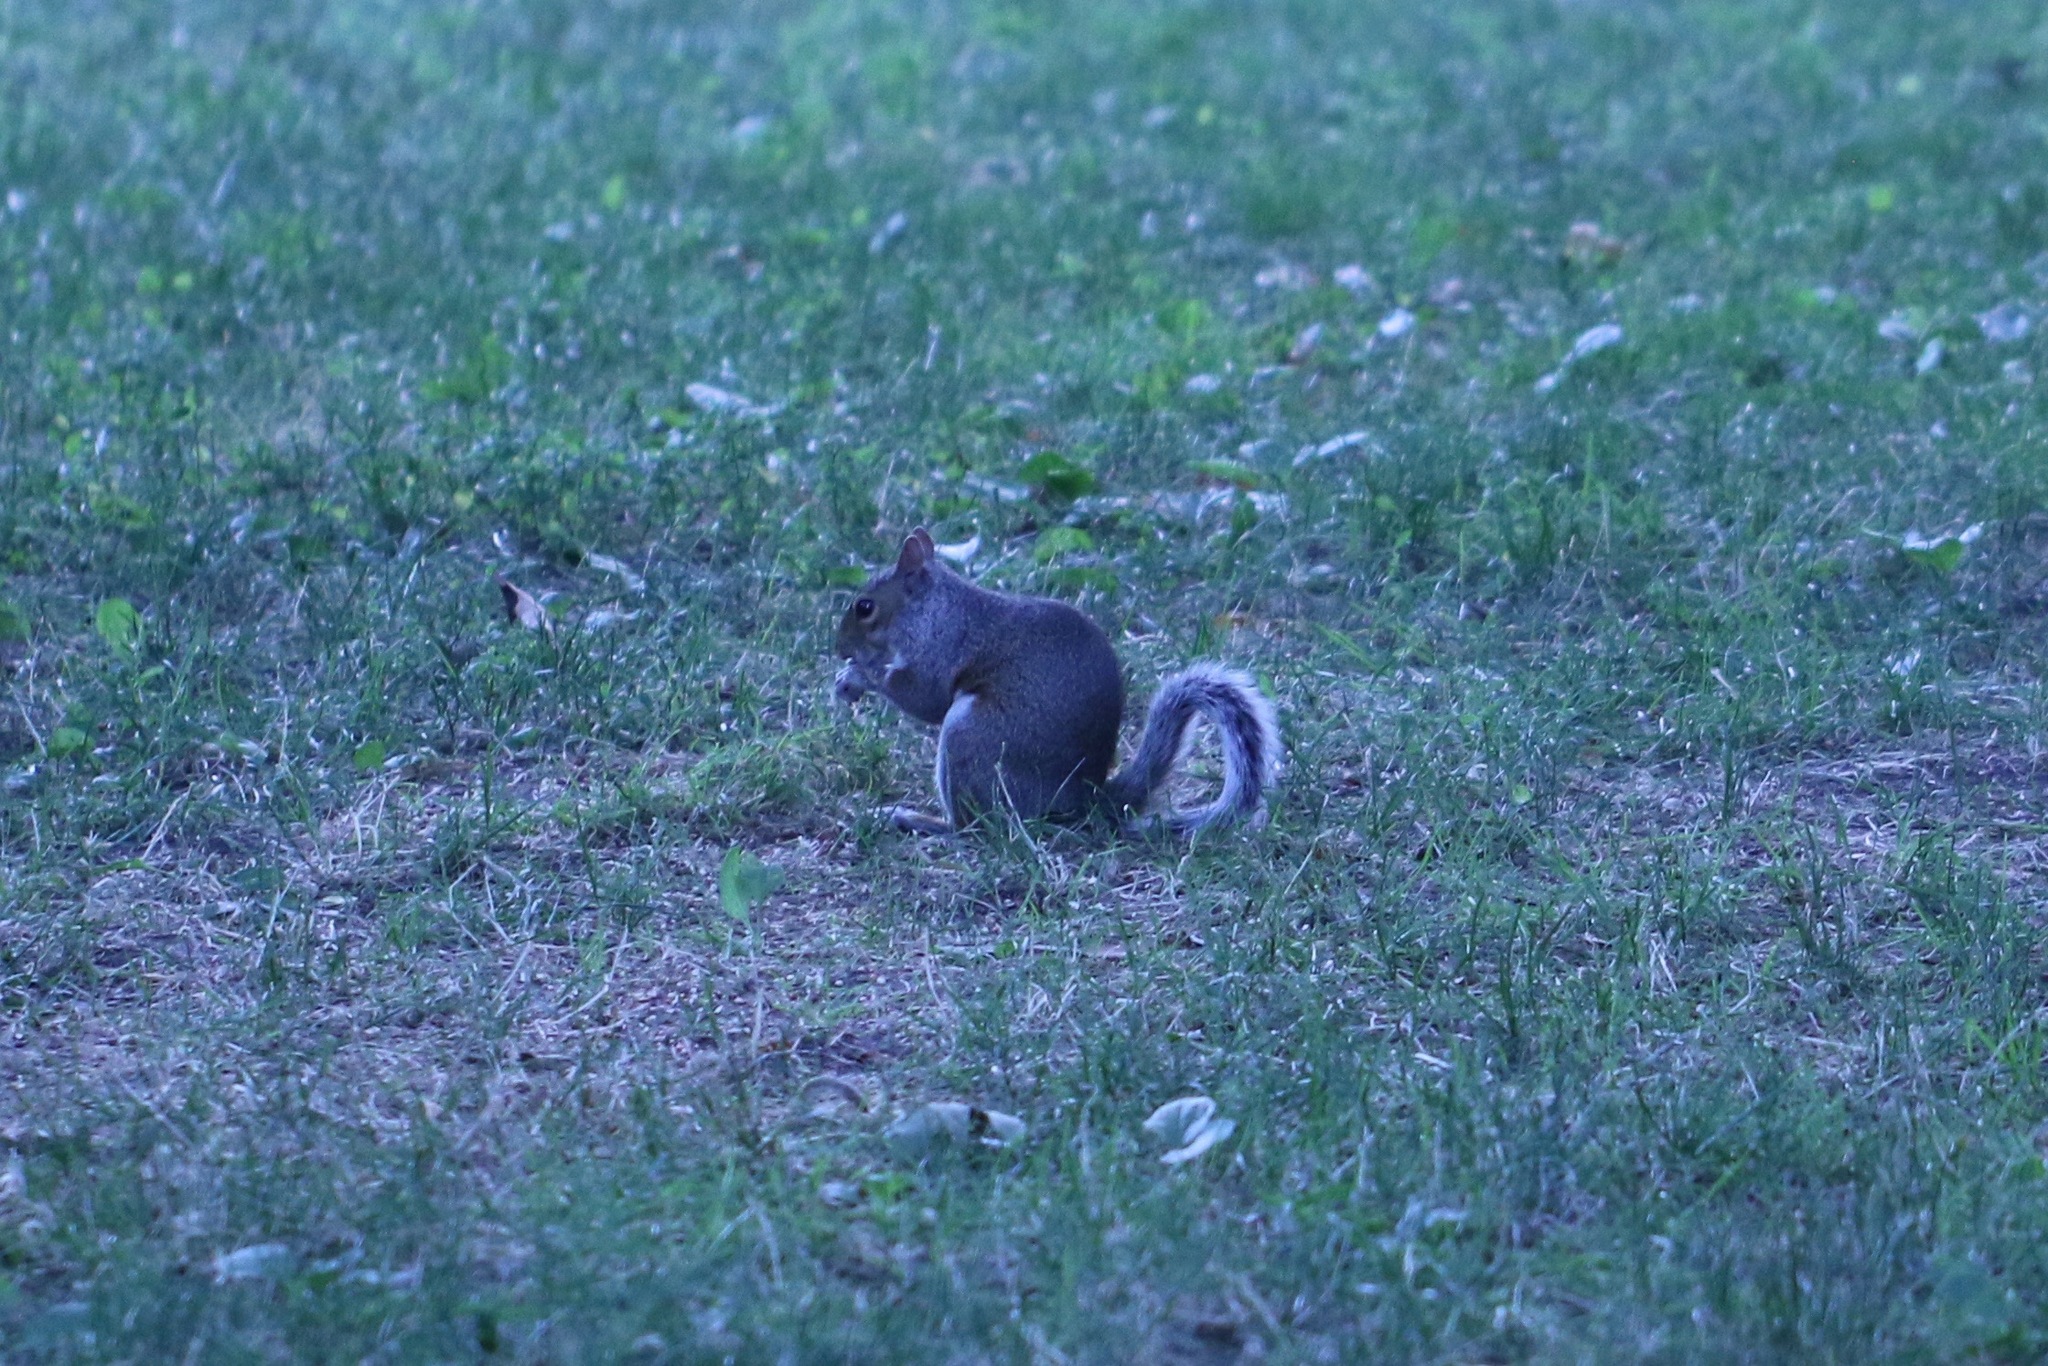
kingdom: Animalia
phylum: Chordata
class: Mammalia
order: Rodentia
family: Sciuridae
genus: Sciurus
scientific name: Sciurus carolinensis
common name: Eastern gray squirrel
